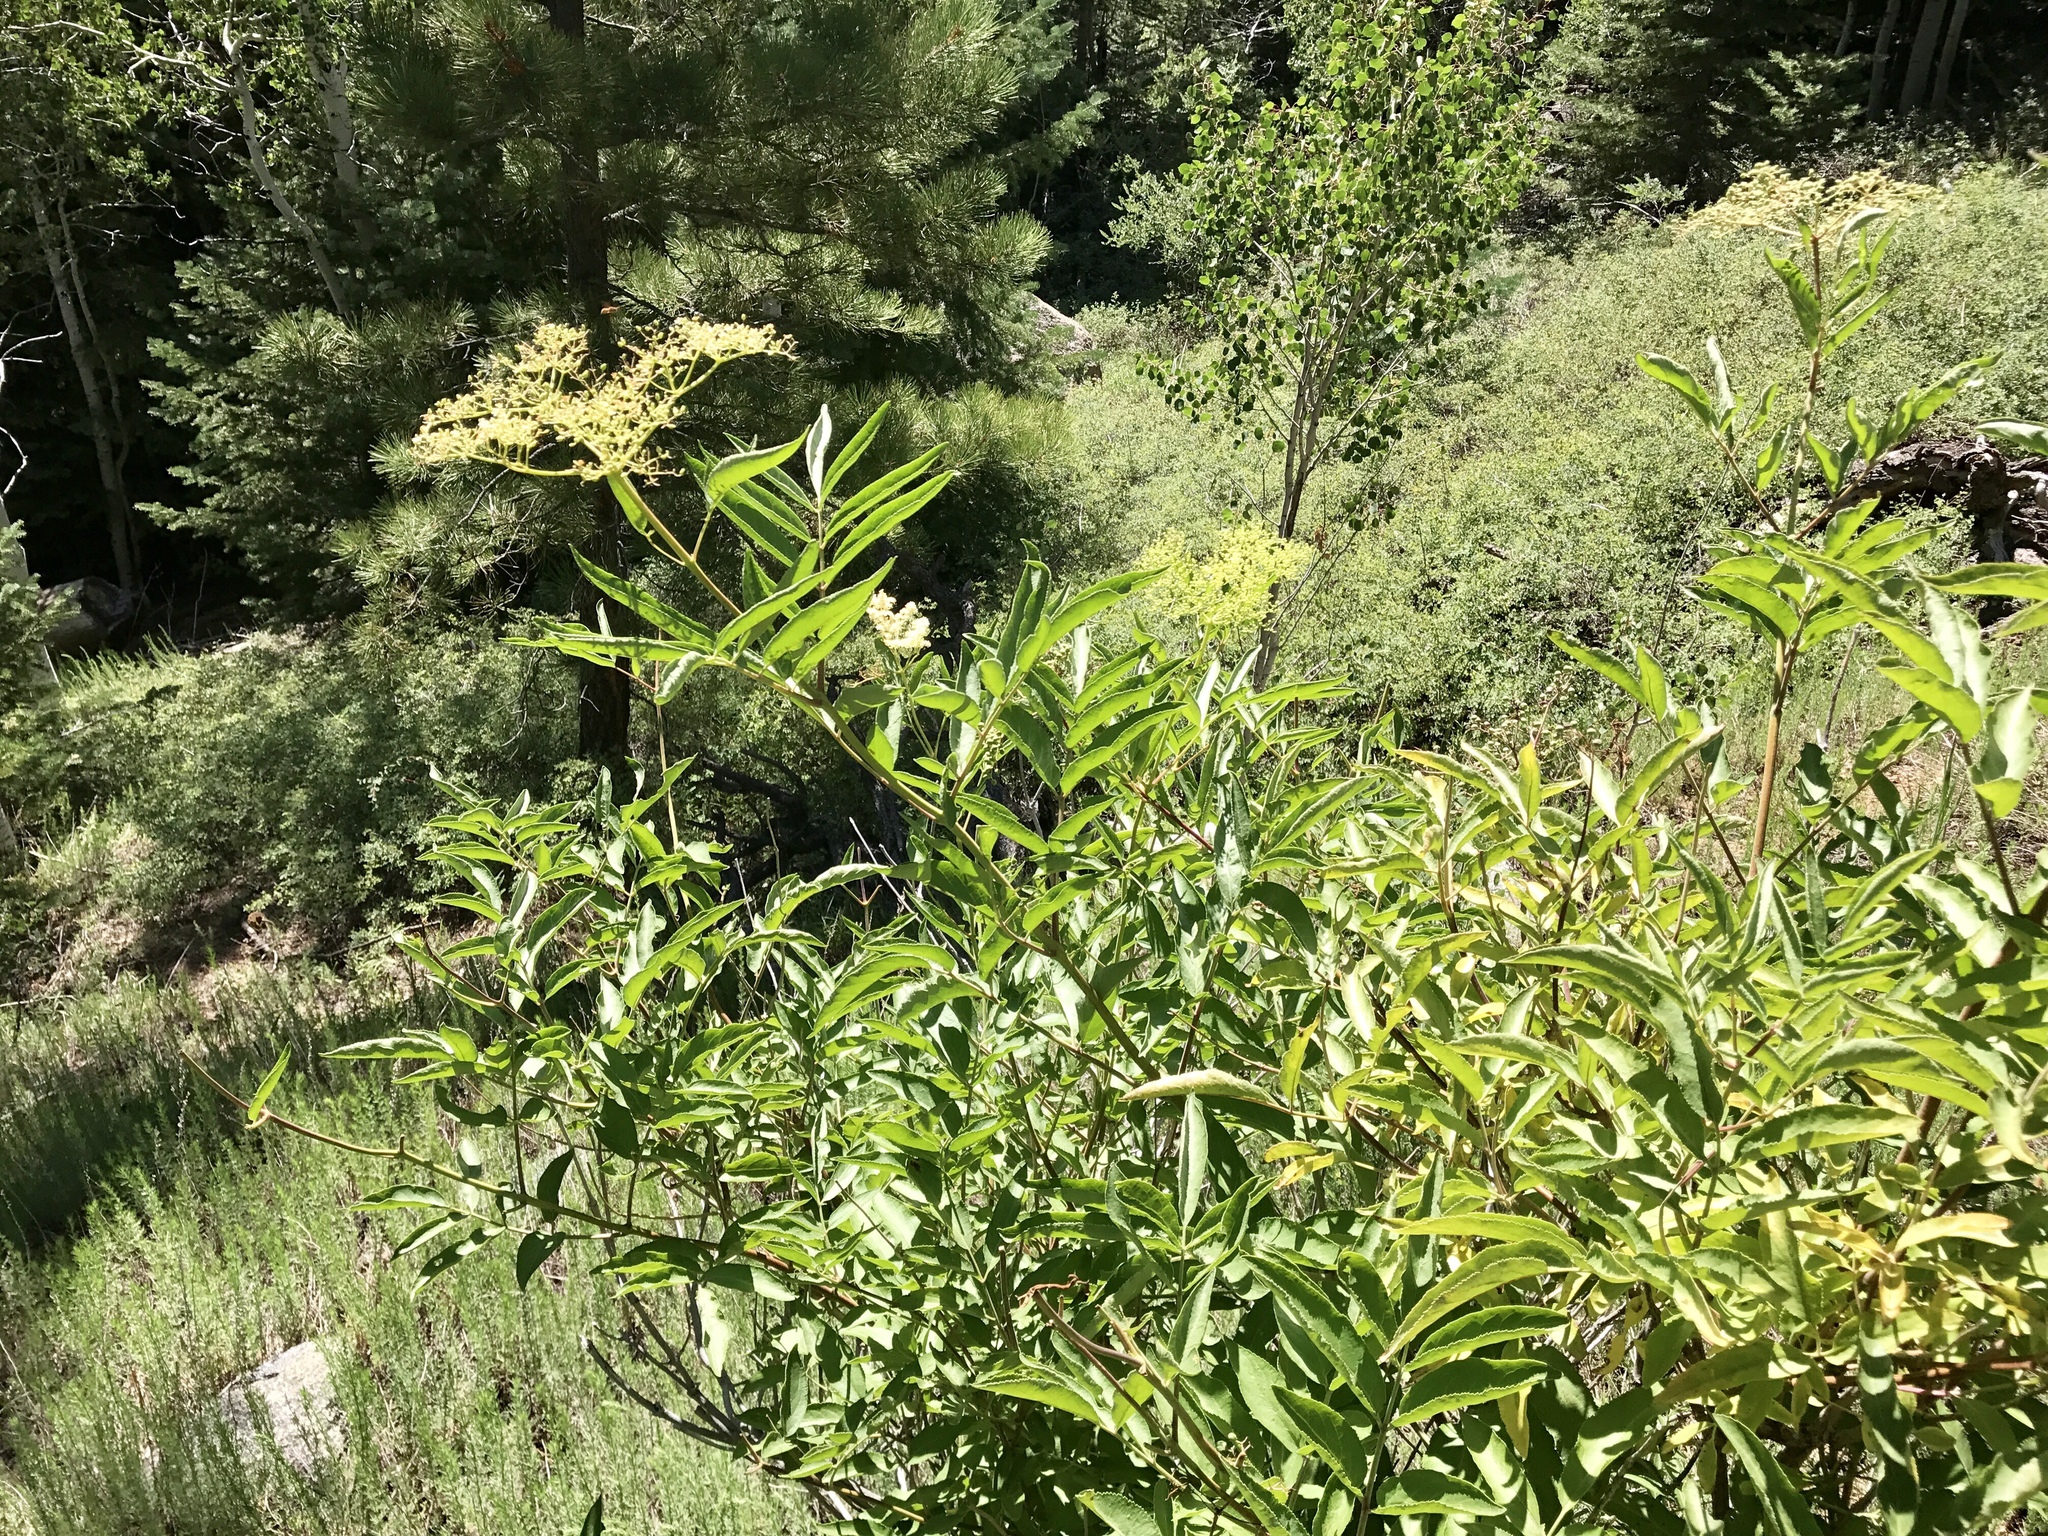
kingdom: Plantae
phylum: Tracheophyta
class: Magnoliopsida
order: Dipsacales
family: Viburnaceae
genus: Sambucus
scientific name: Sambucus cerulea
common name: Blue elder
